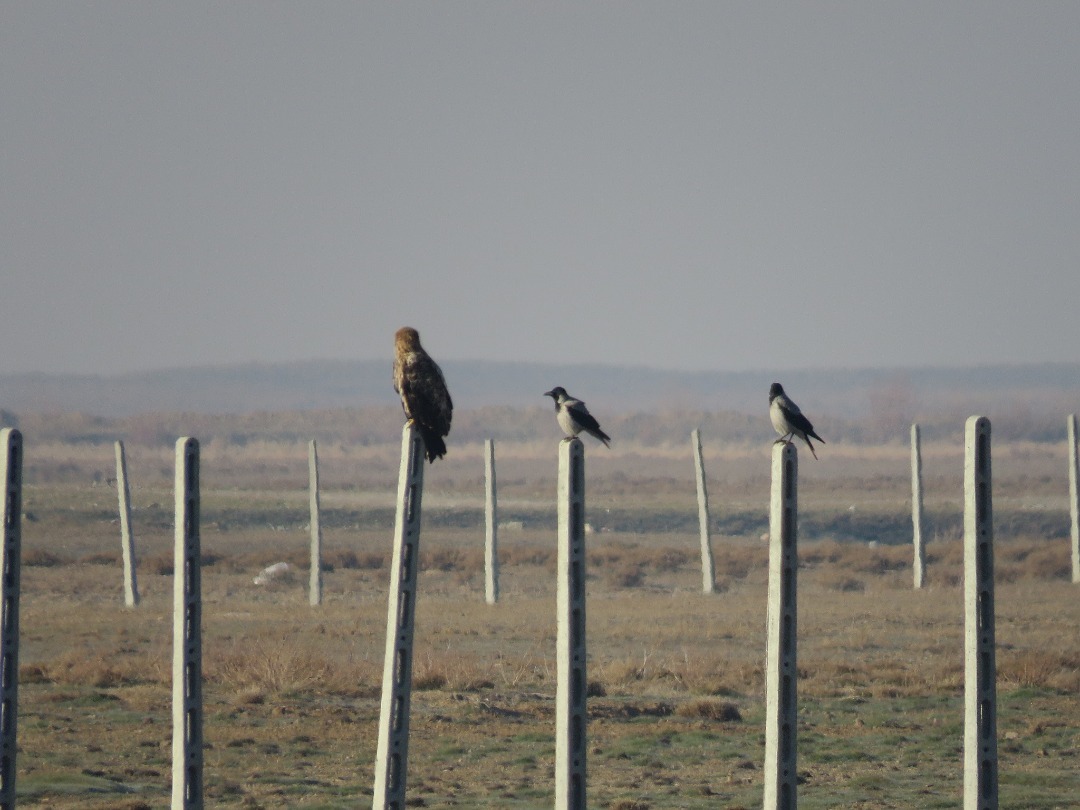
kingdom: Animalia
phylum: Chordata
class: Aves
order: Passeriformes
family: Corvidae
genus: Corvus
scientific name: Corvus cornix
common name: Hooded crow
